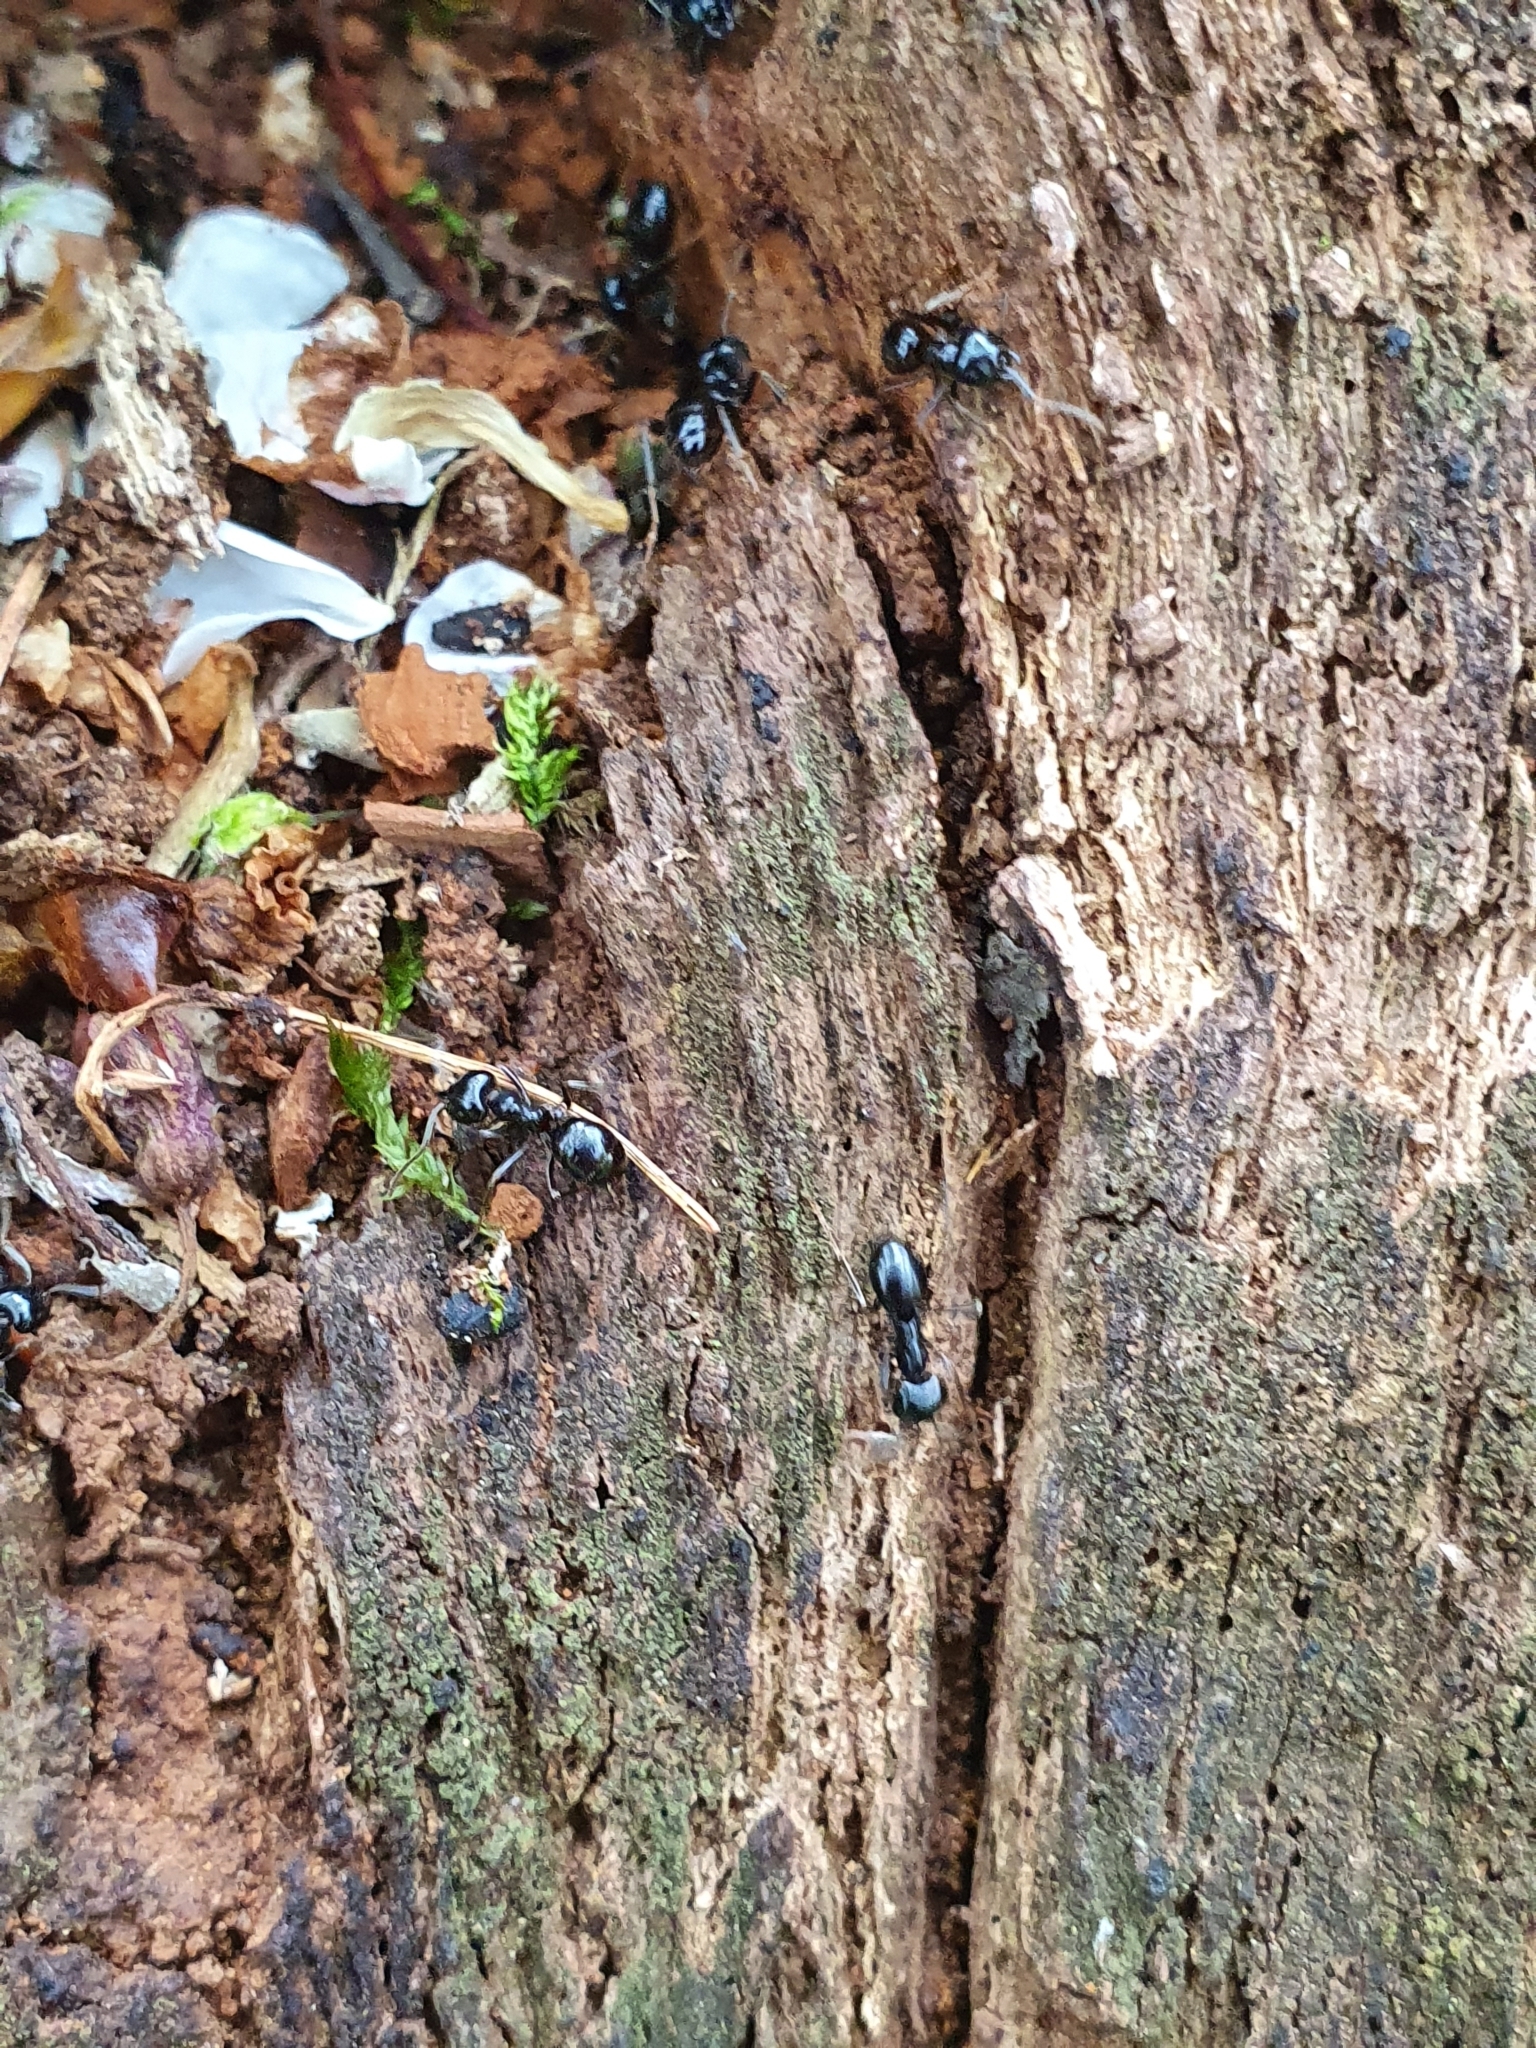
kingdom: Animalia
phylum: Arthropoda
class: Insecta
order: Hymenoptera
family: Formicidae
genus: Lasius
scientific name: Lasius fuliginosus
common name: Jet ant
